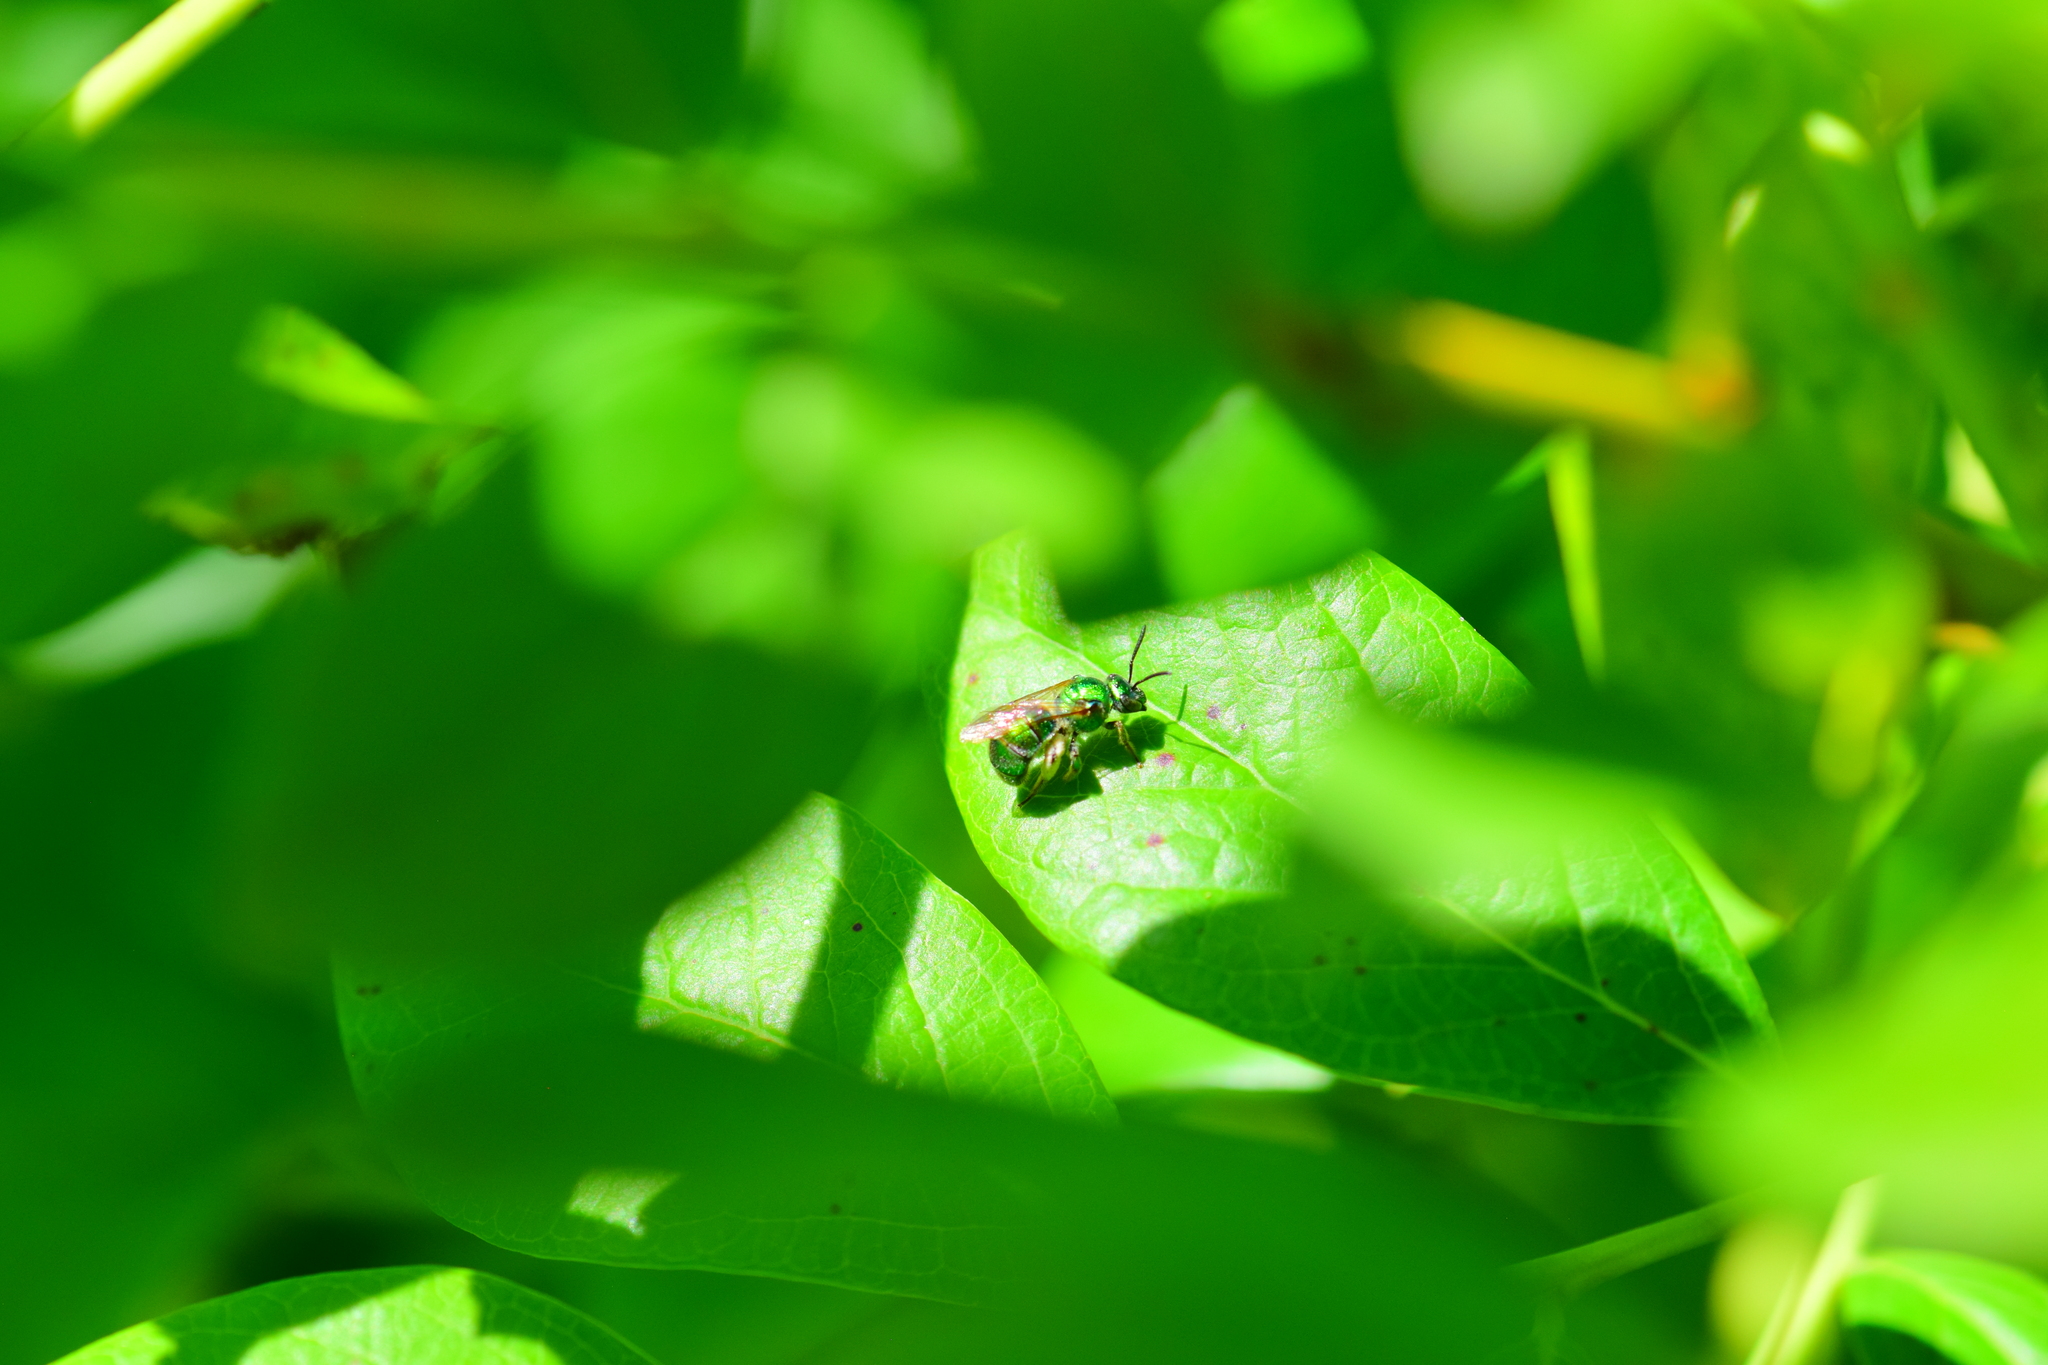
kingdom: Animalia
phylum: Arthropoda
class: Insecta
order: Hymenoptera
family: Halictidae
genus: Augochloropsis
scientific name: Augochloropsis viridula
